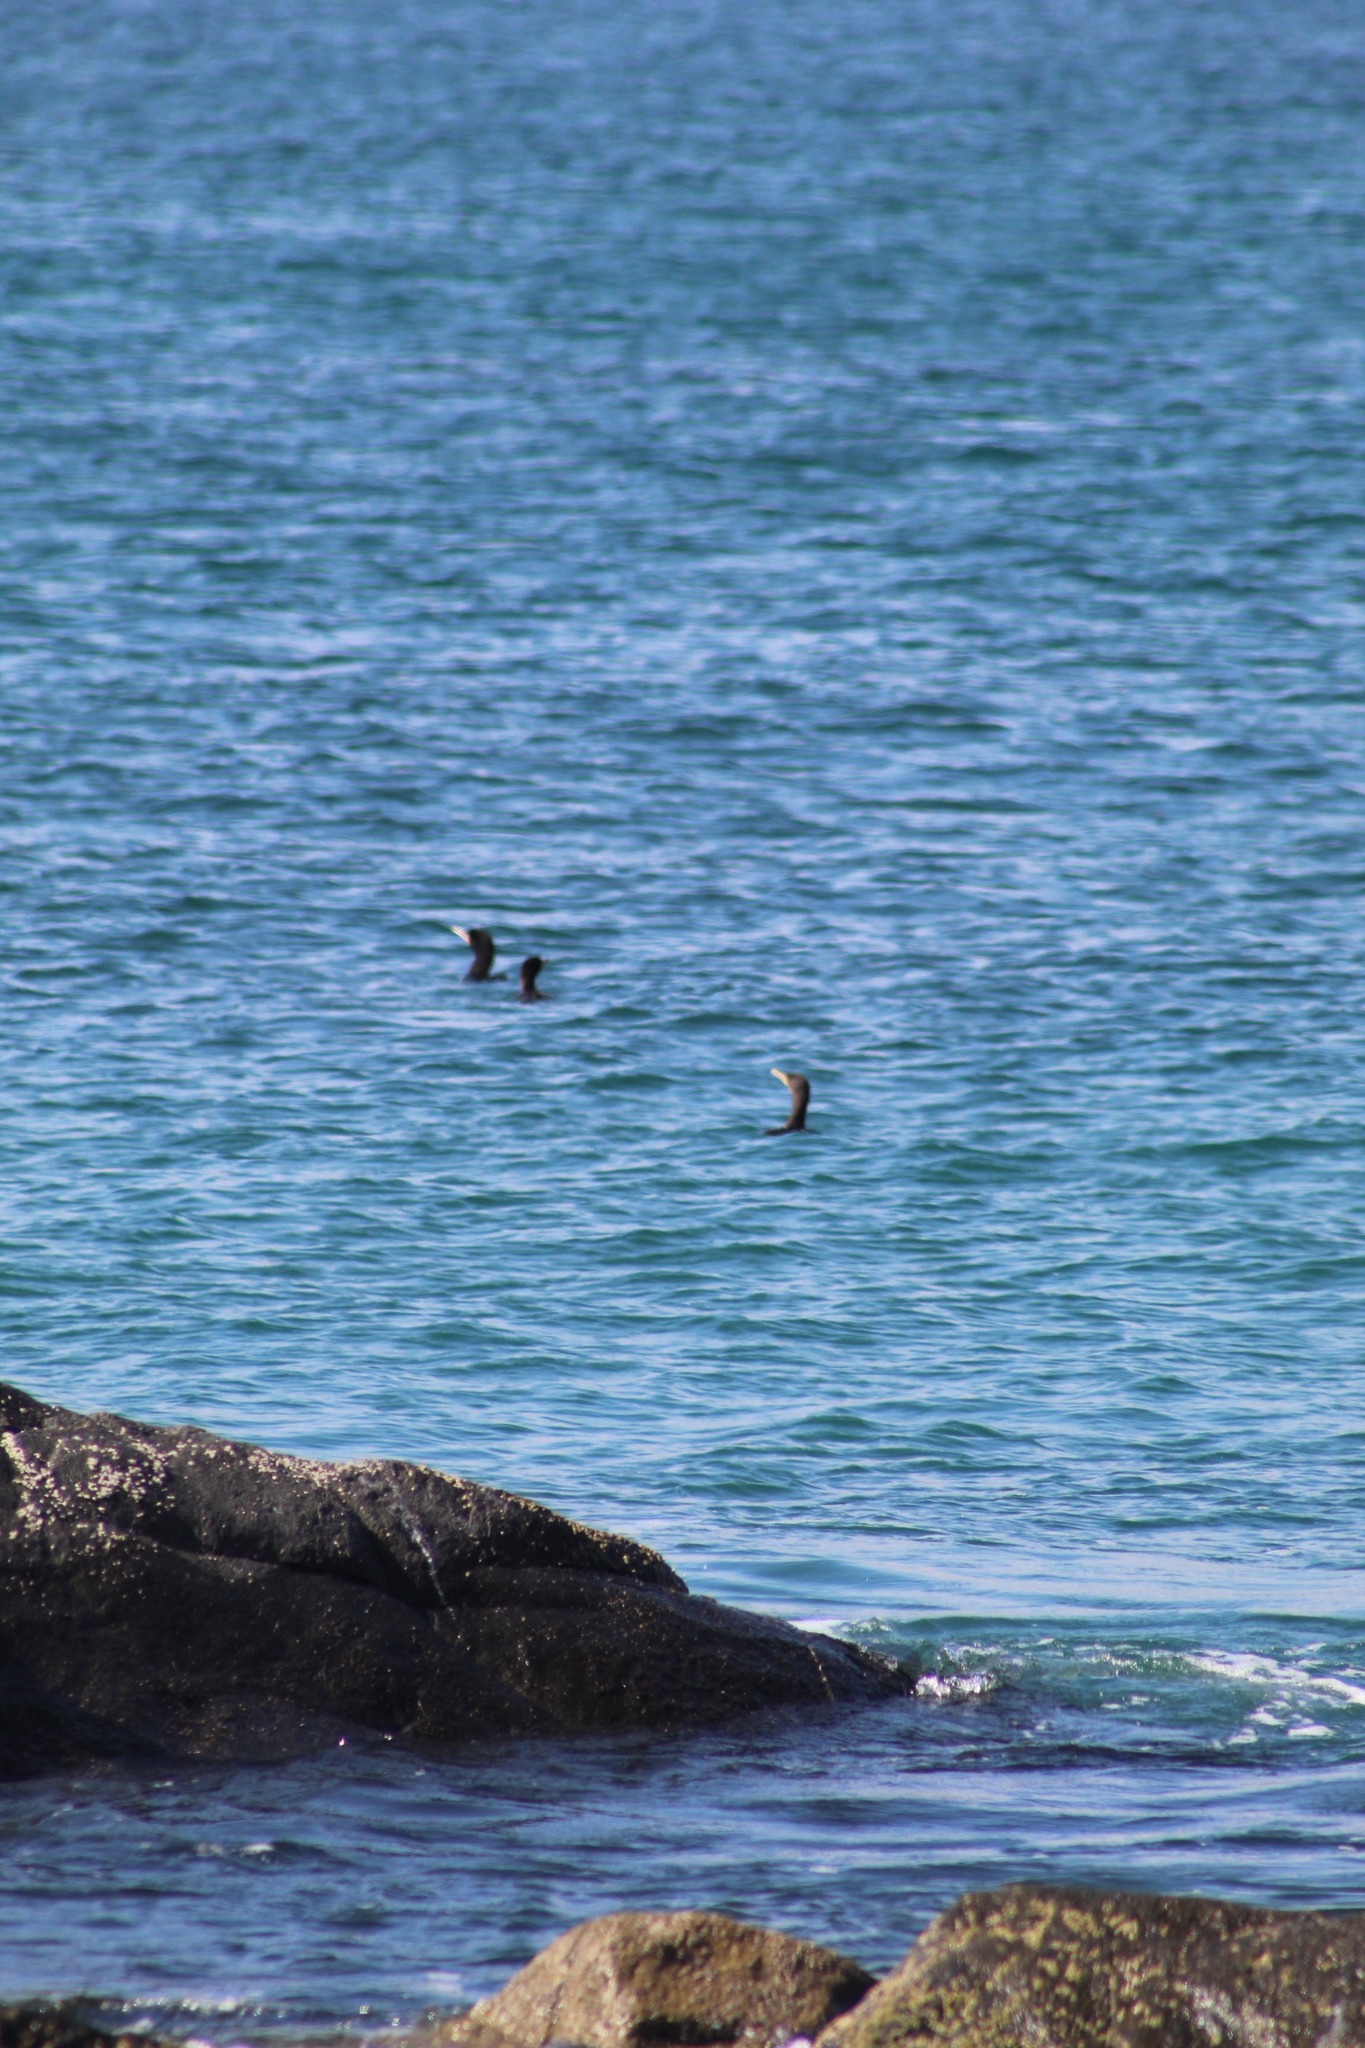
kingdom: Animalia
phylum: Chordata
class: Aves
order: Suliformes
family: Phalacrocoracidae
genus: Phalacrocorax
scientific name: Phalacrocorax brasilianus
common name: Neotropic cormorant
